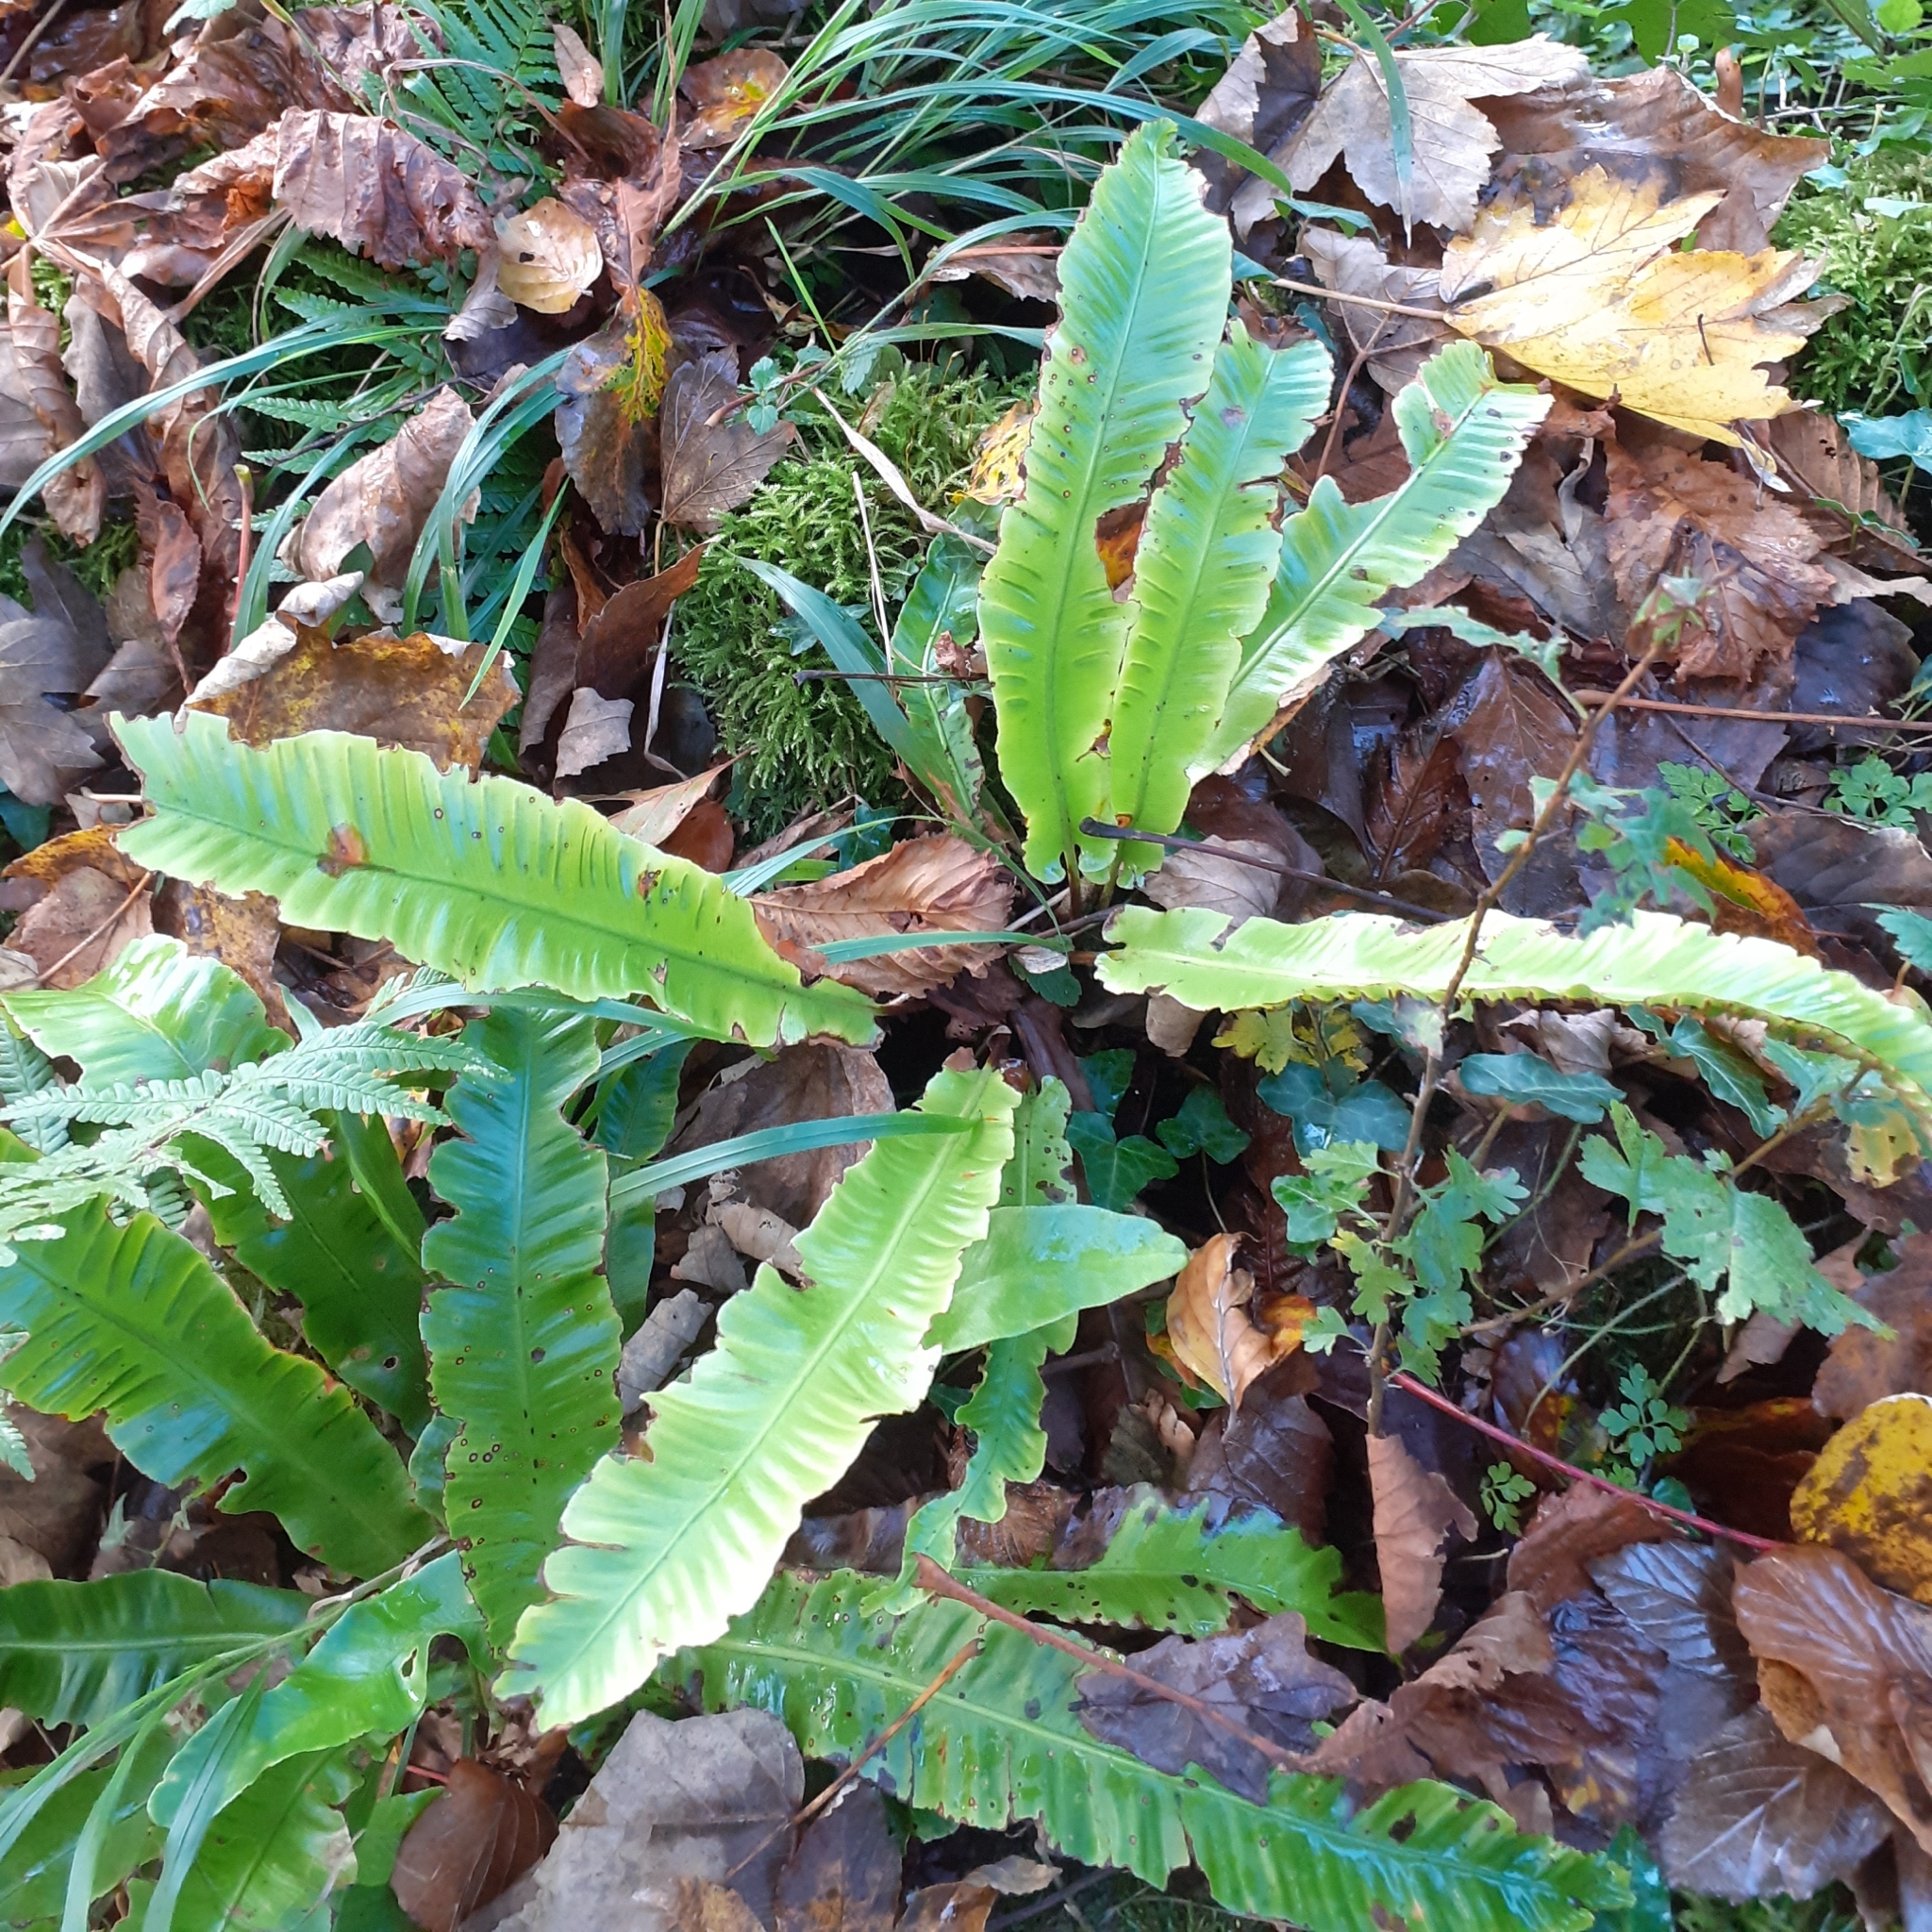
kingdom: Plantae
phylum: Tracheophyta
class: Polypodiopsida
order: Polypodiales
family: Aspleniaceae
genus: Asplenium
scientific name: Asplenium scolopendrium
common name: Hart's-tongue fern
